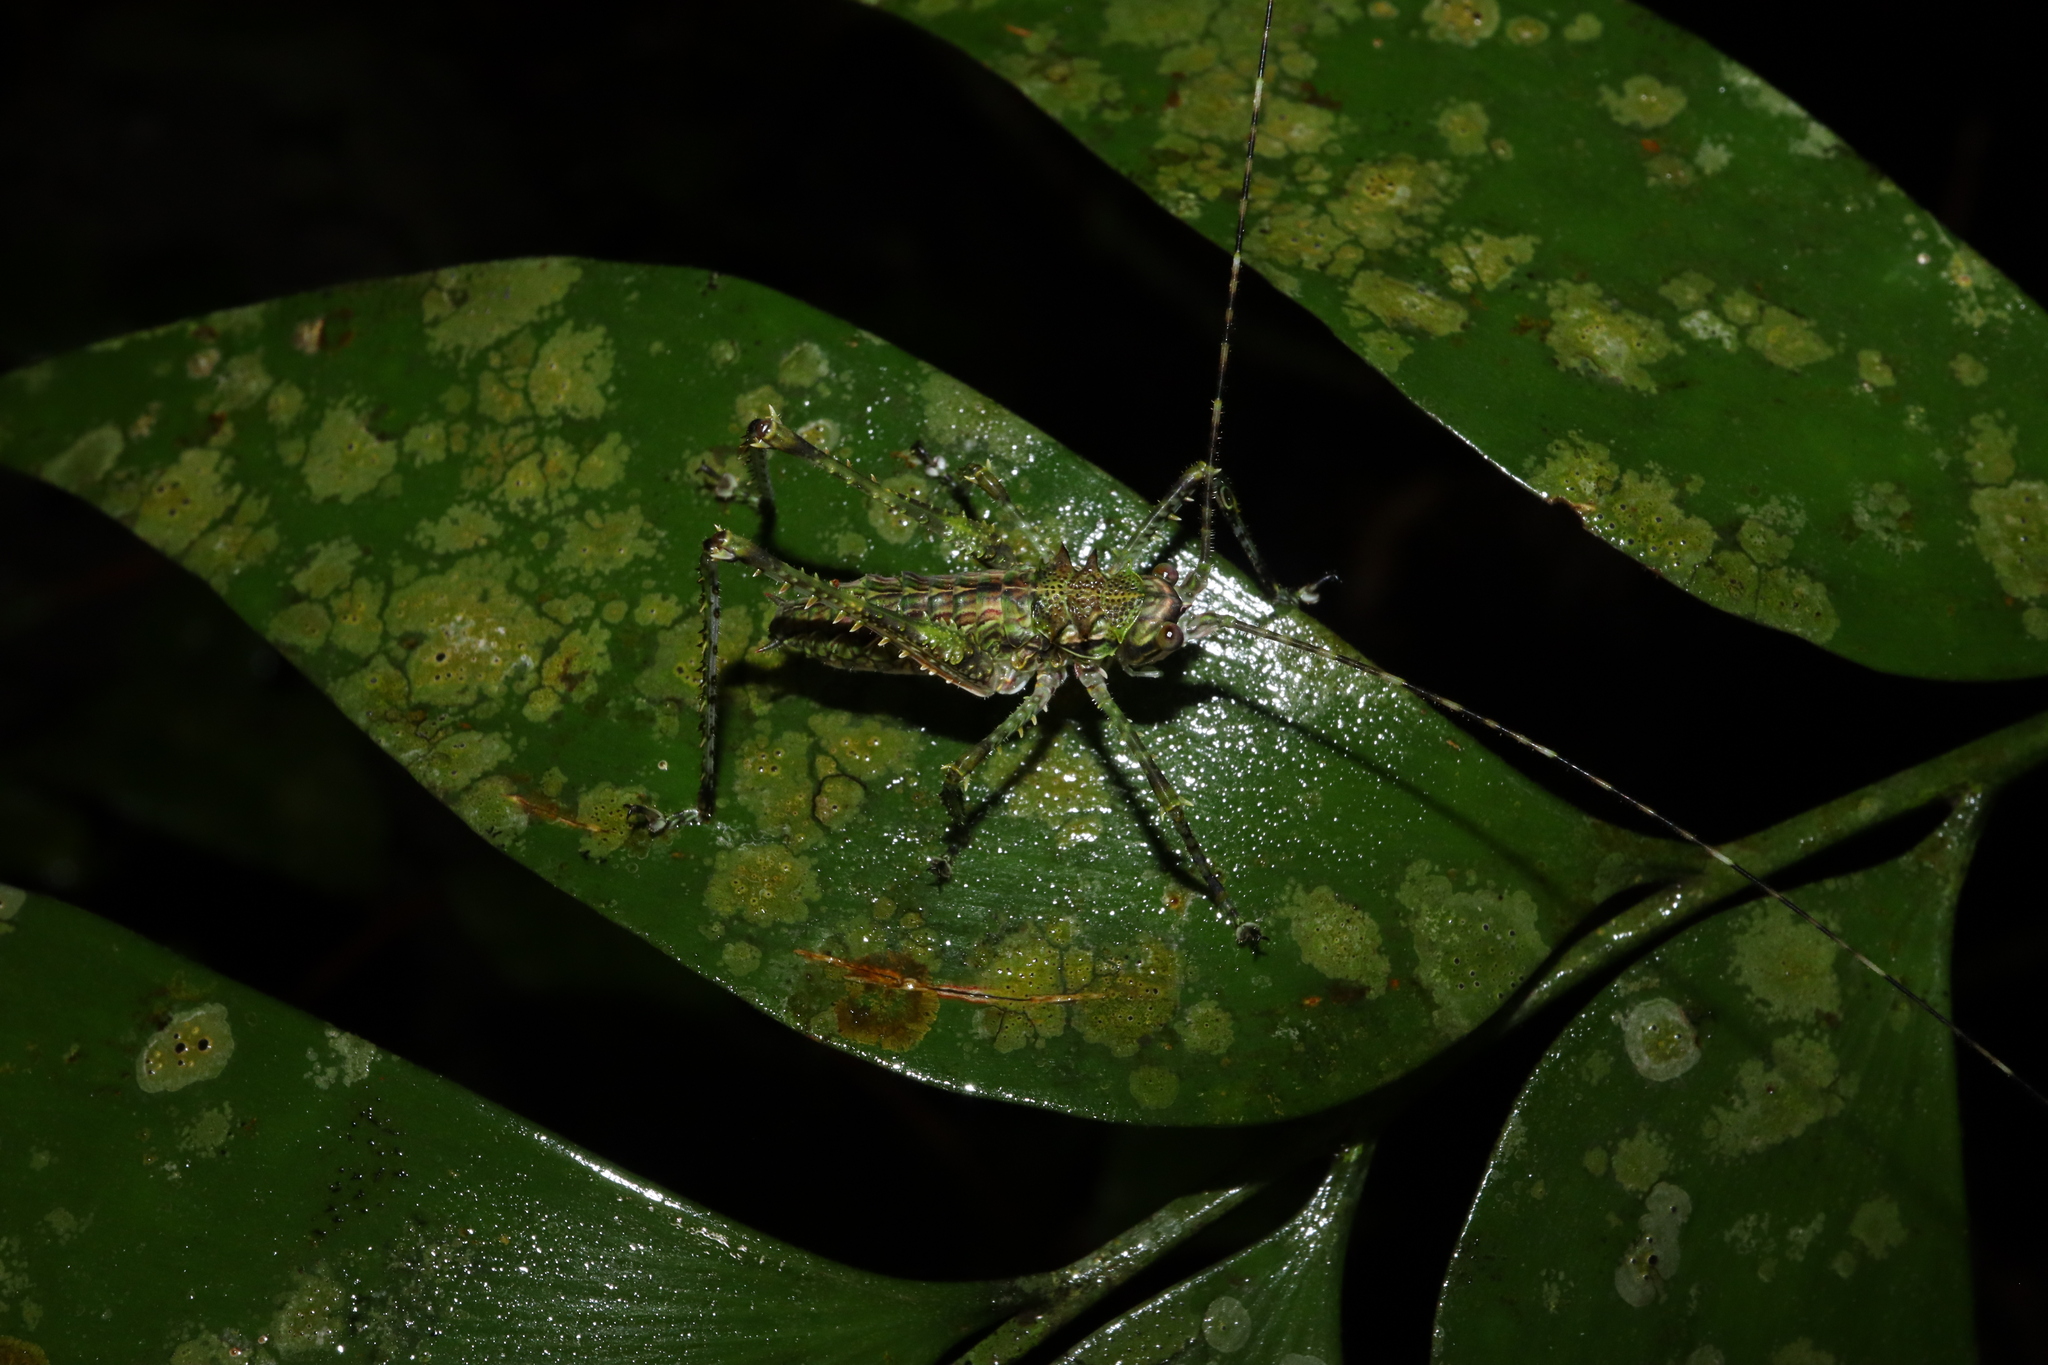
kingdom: Animalia
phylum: Arthropoda
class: Insecta
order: Orthoptera
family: Tettigoniidae
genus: Phricta
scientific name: Phricta spinosa
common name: Giant spiny forest katydid
